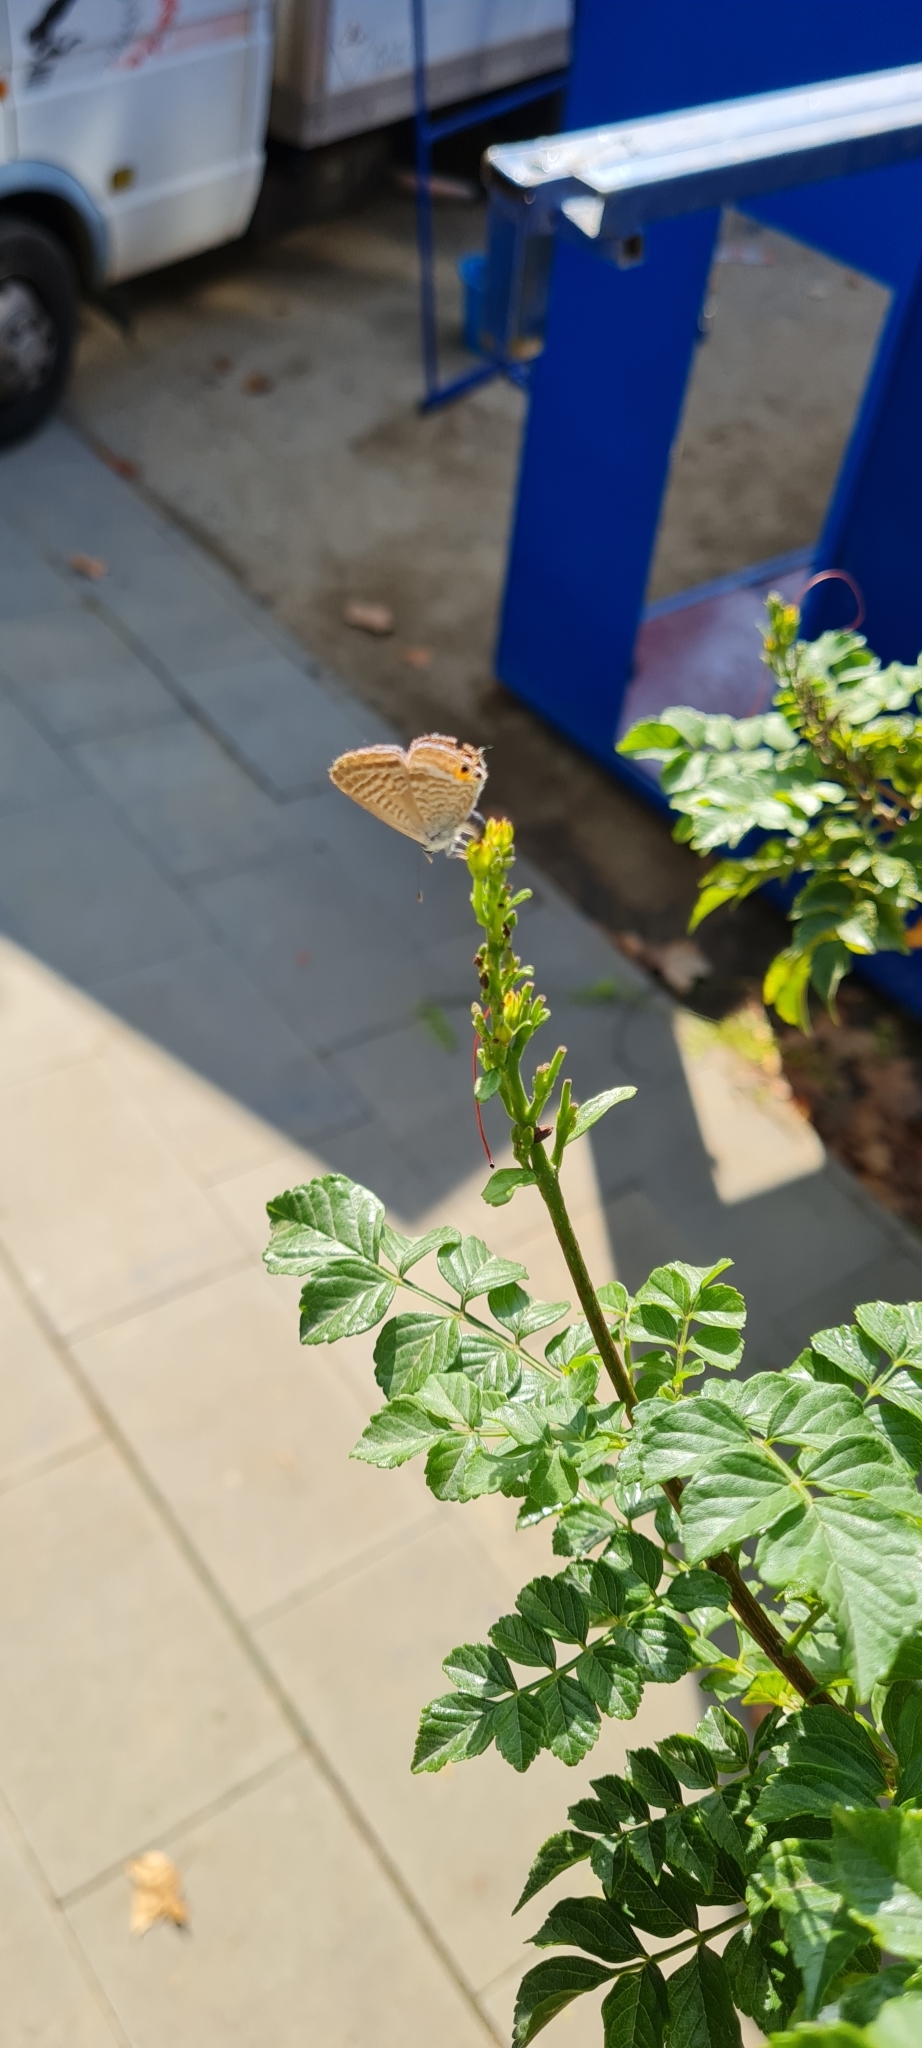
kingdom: Animalia
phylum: Arthropoda
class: Insecta
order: Lepidoptera
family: Lycaenidae
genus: Lampides
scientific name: Lampides boeticus
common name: Long-tailed blue
